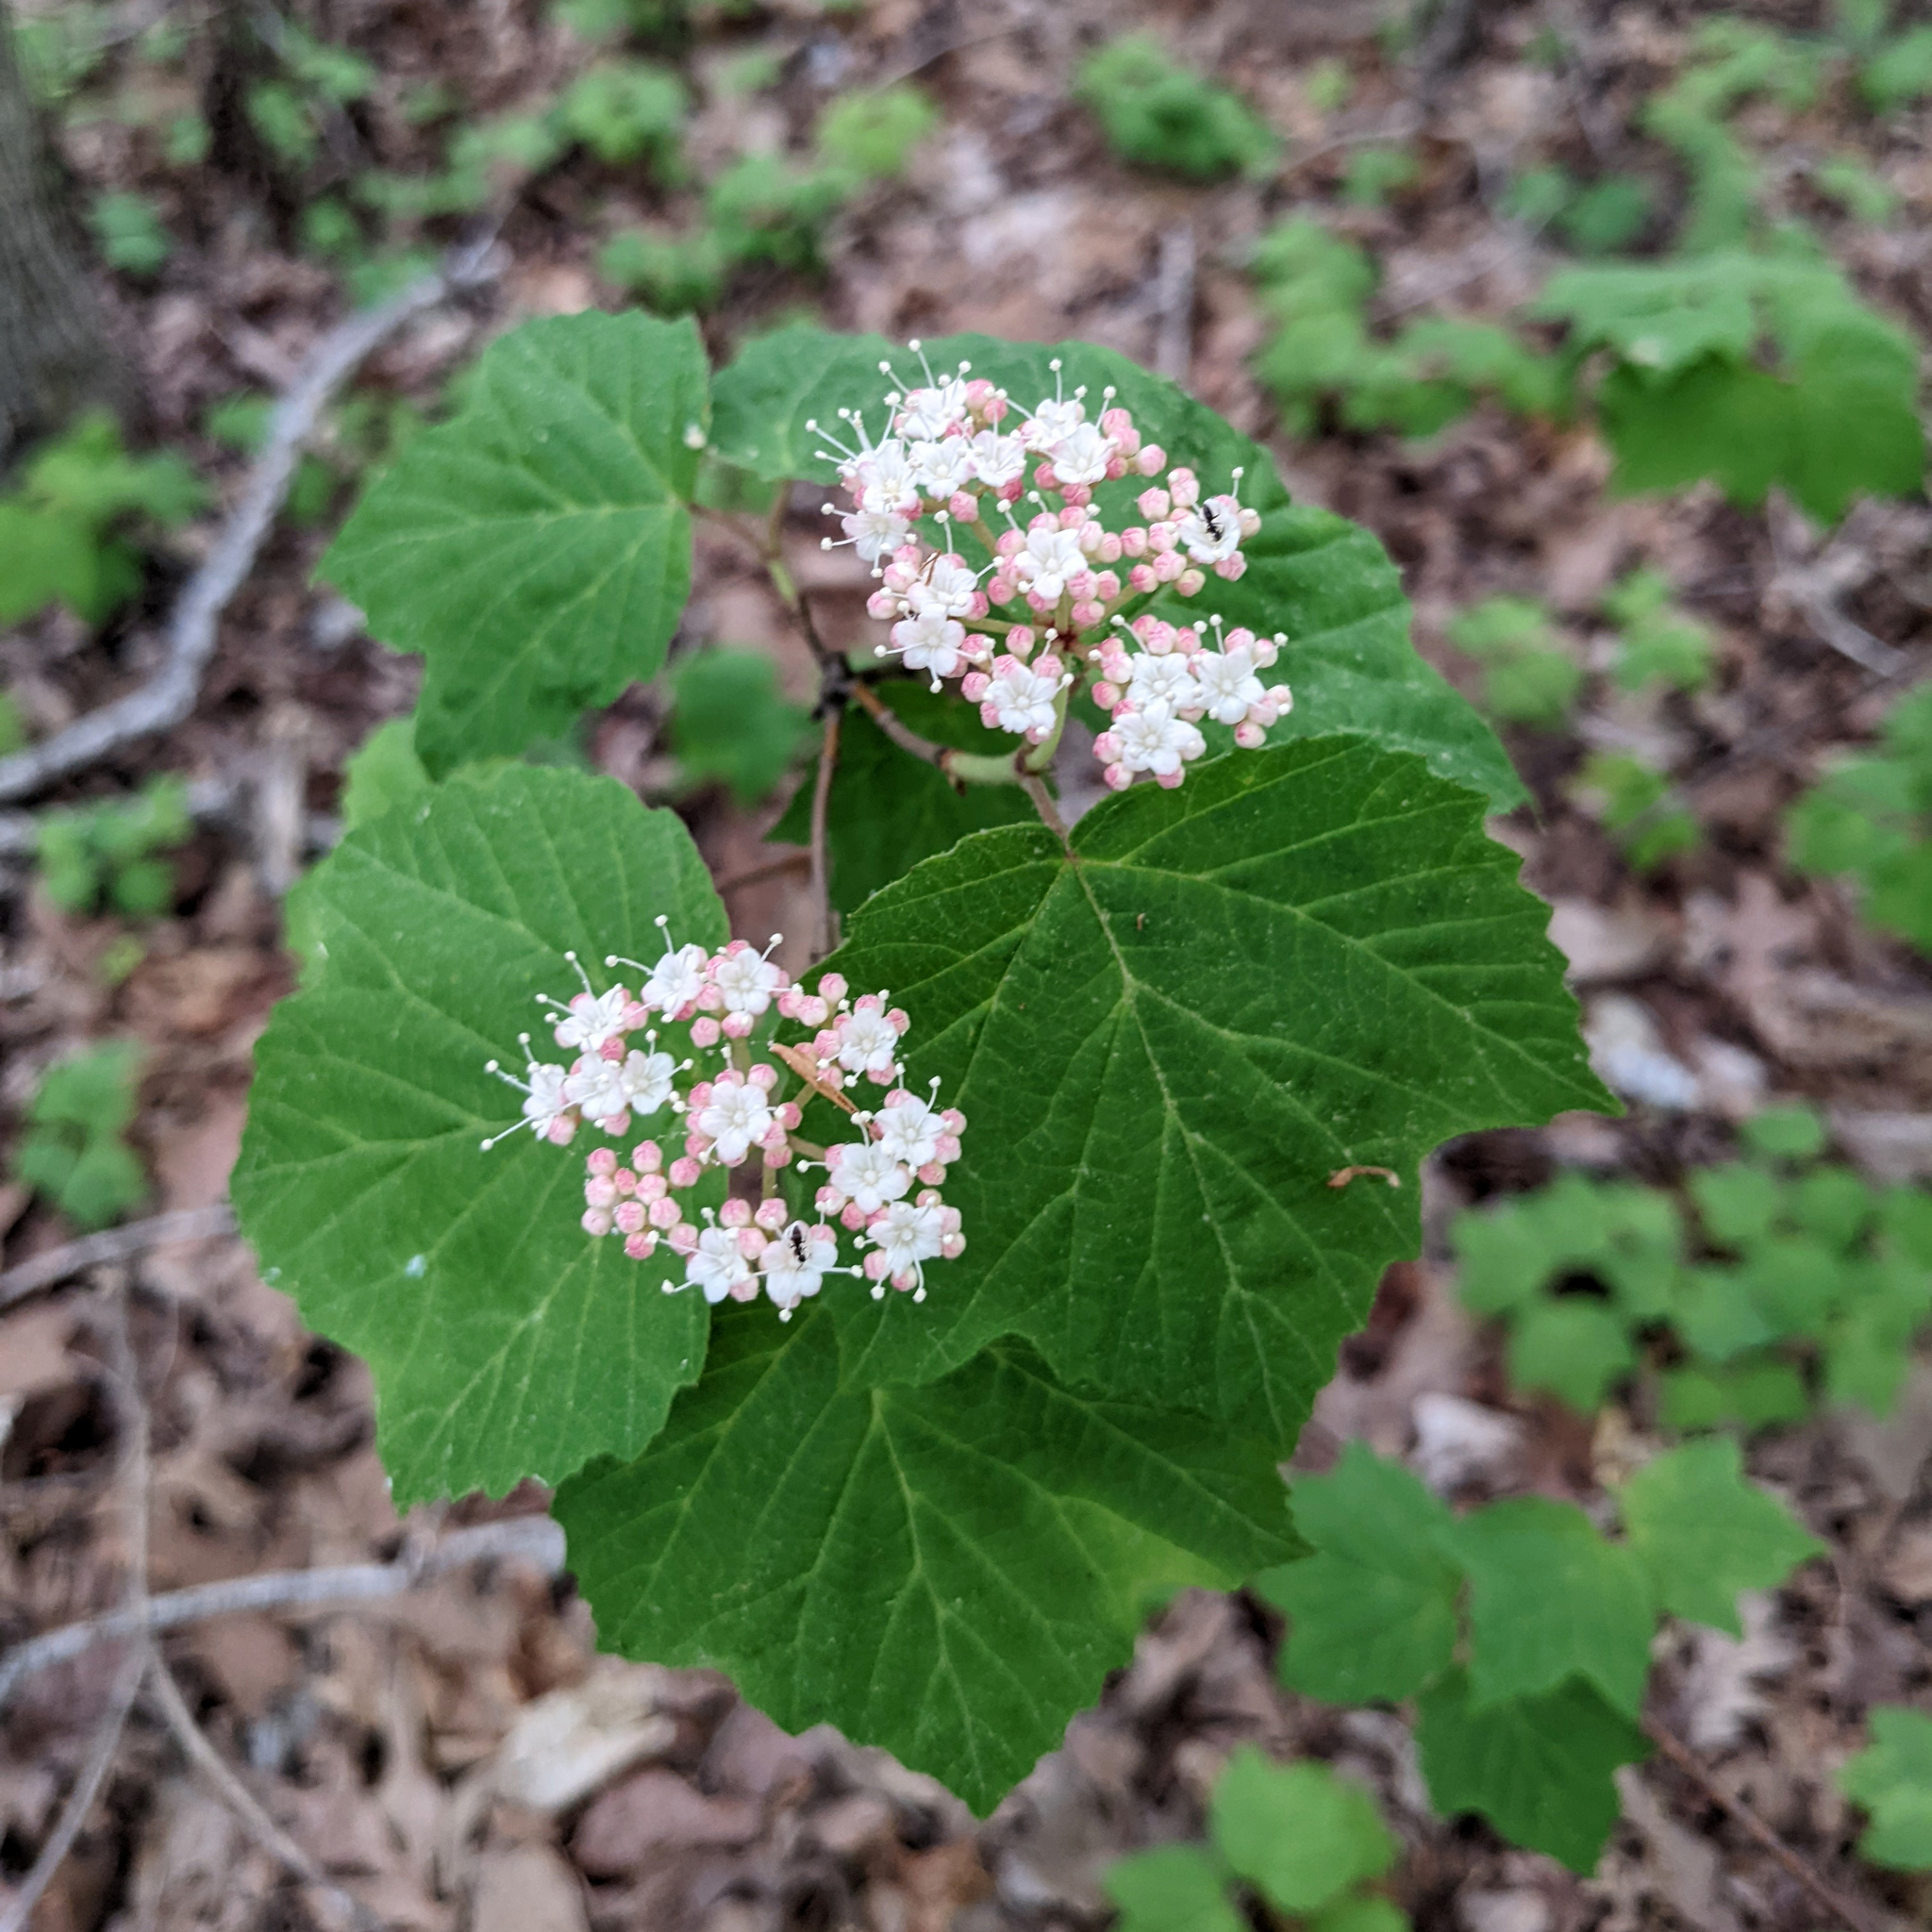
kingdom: Plantae
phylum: Tracheophyta
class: Magnoliopsida
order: Dipsacales
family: Viburnaceae
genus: Viburnum
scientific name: Viburnum acerifolium
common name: Dockmackie
